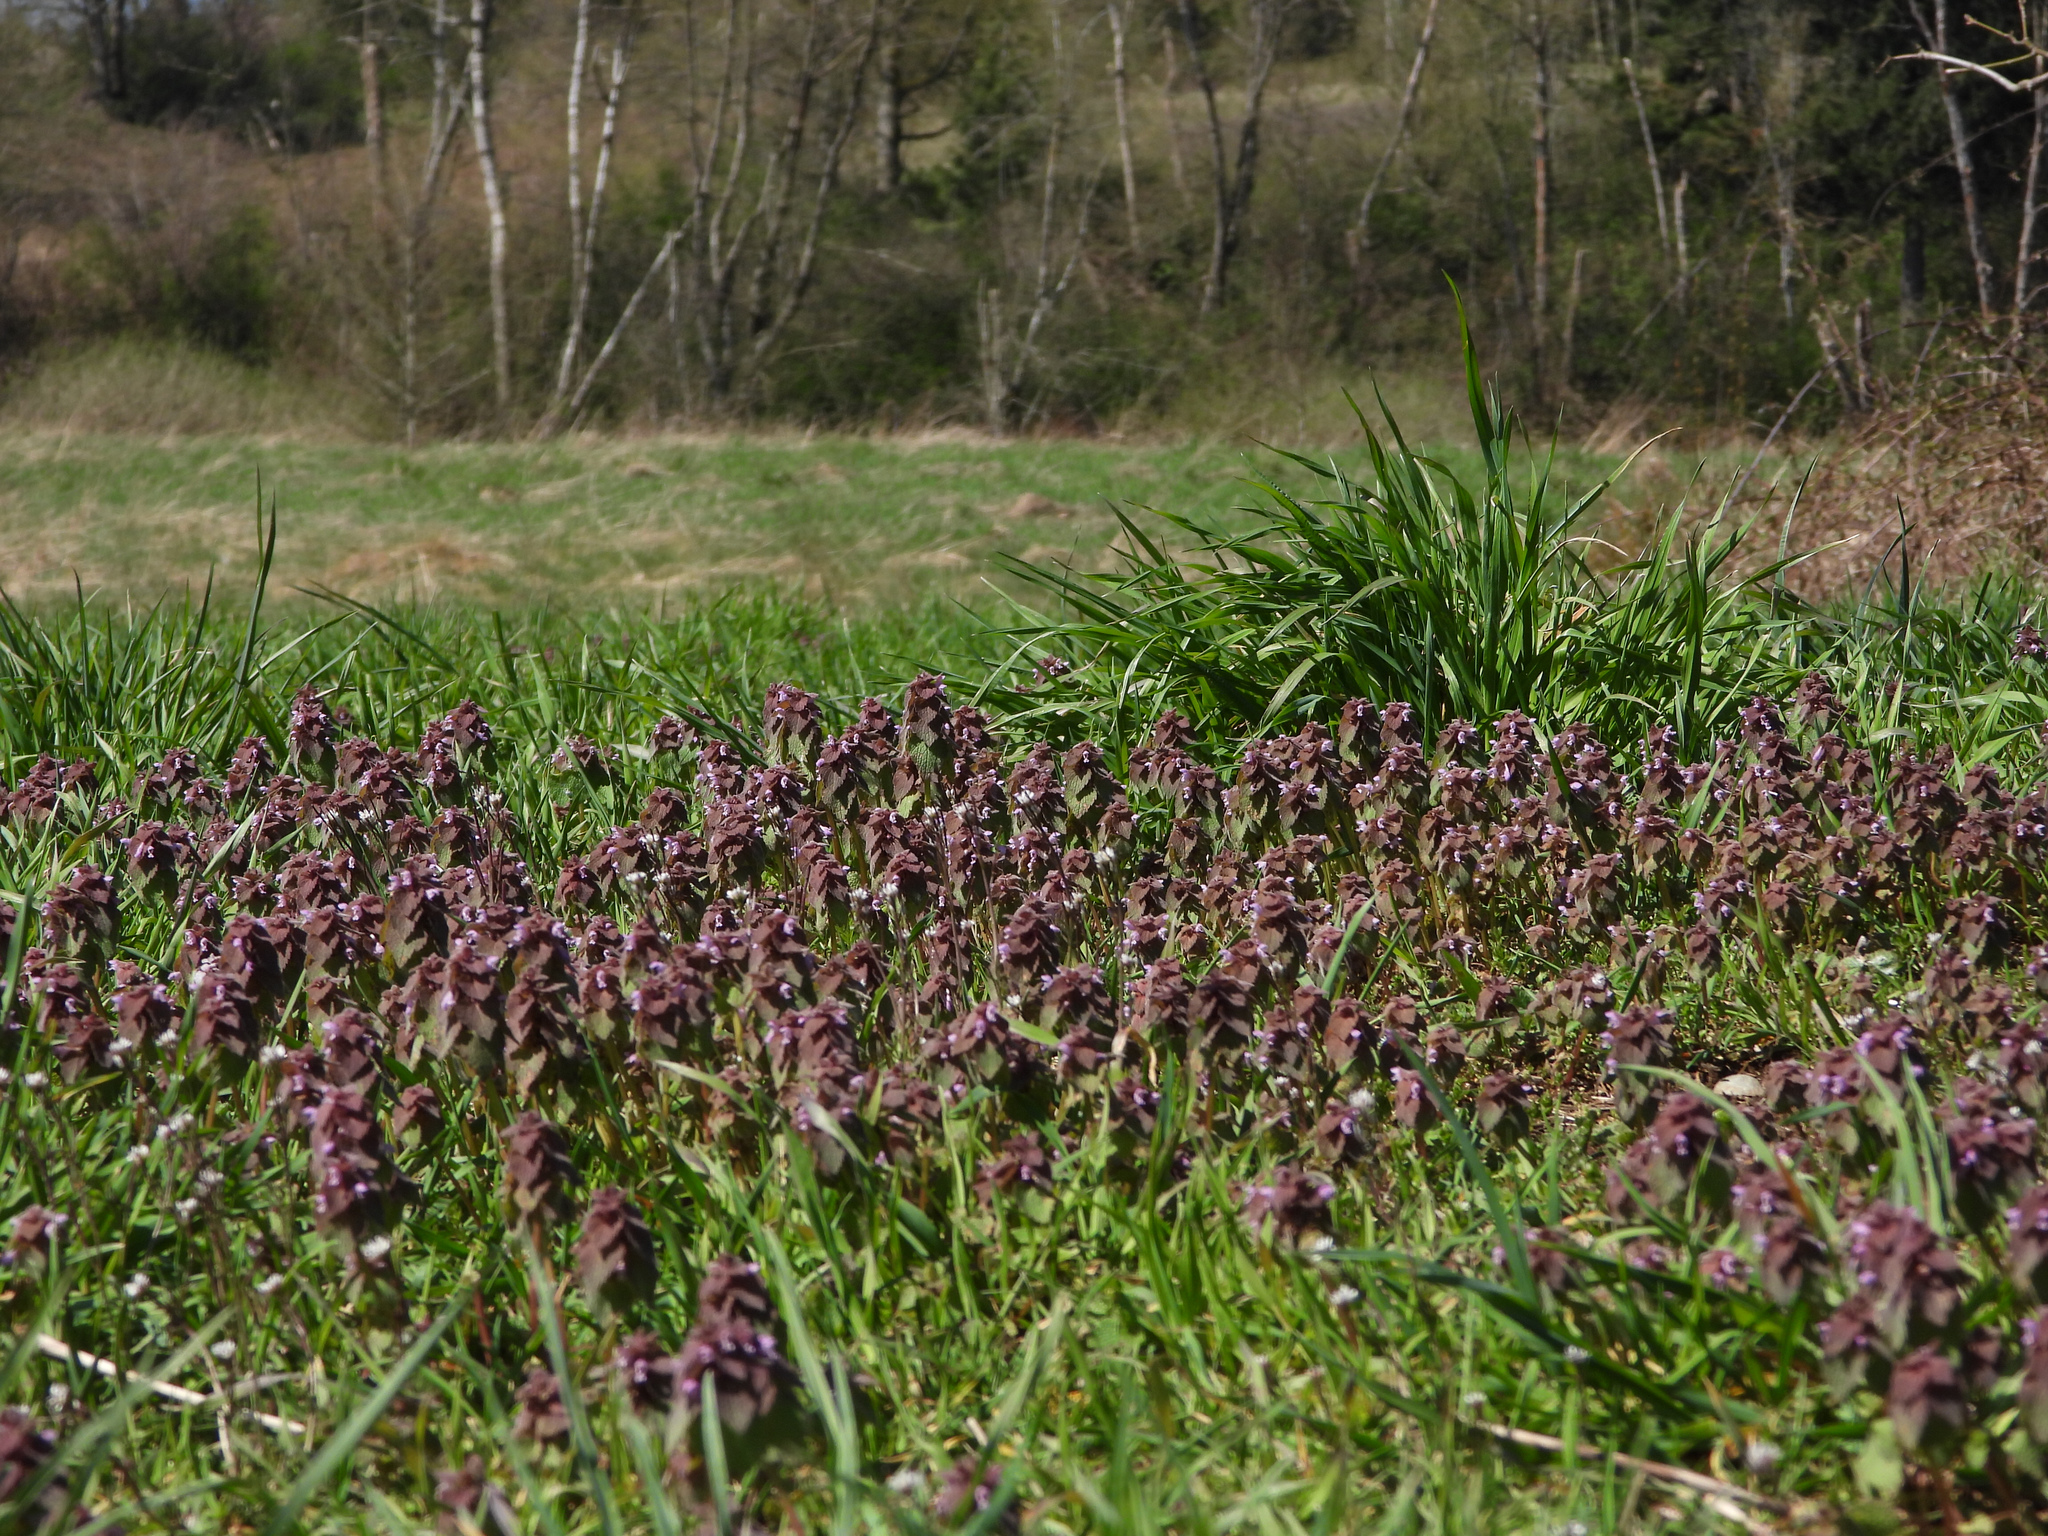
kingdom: Plantae
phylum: Tracheophyta
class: Magnoliopsida
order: Lamiales
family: Lamiaceae
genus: Lamium
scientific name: Lamium purpureum
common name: Red dead-nettle
